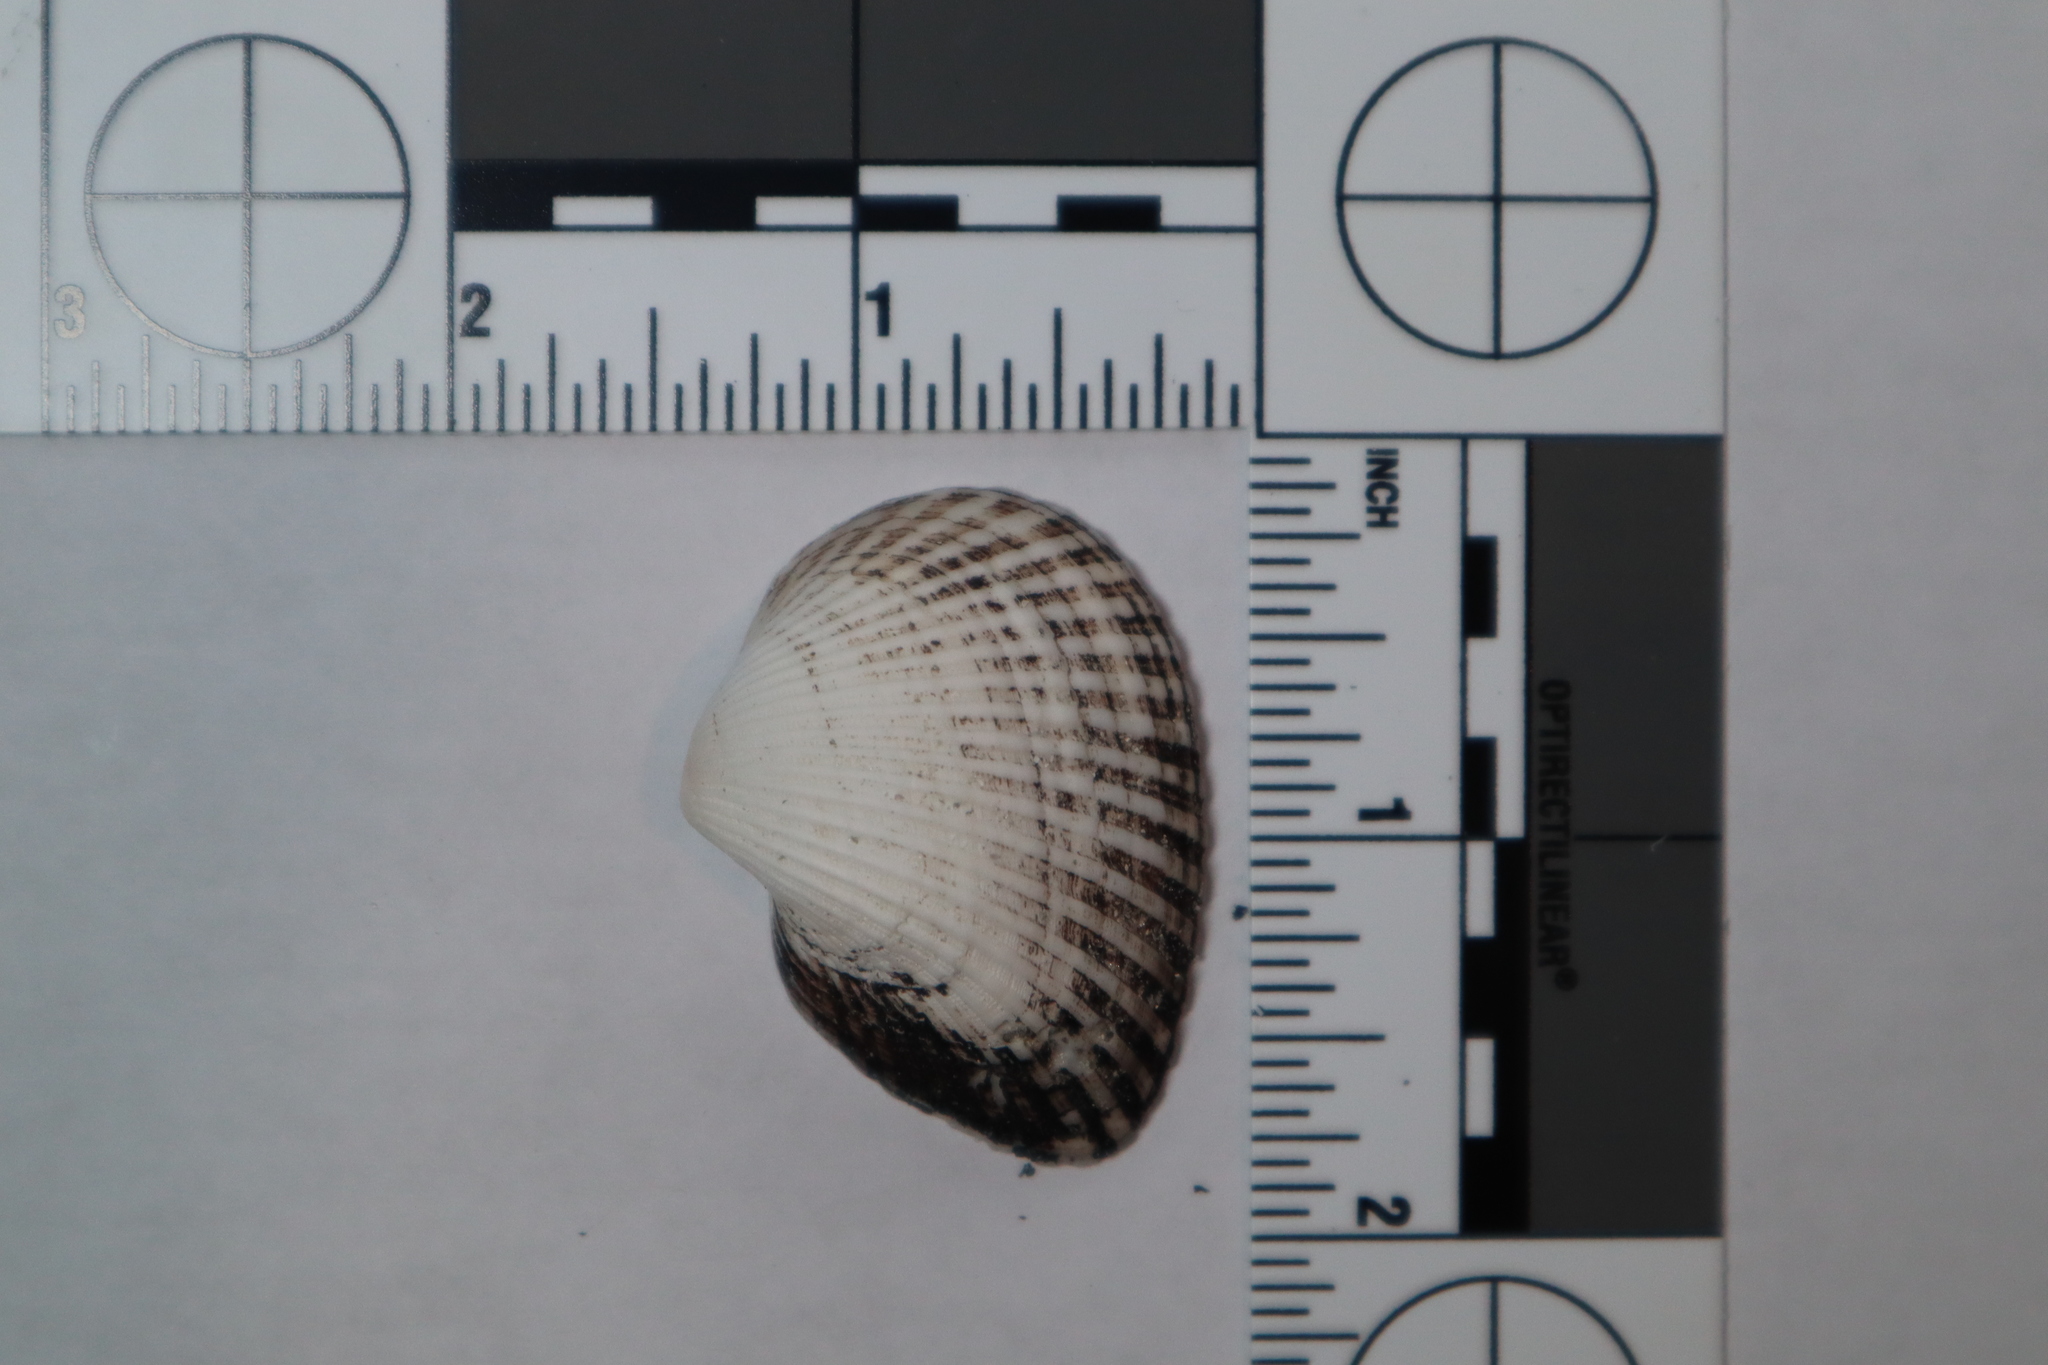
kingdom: Animalia
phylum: Mollusca
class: Bivalvia
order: Arcida
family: Noetiidae
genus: Noetia
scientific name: Noetia ponderosa
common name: Ponderous ark
